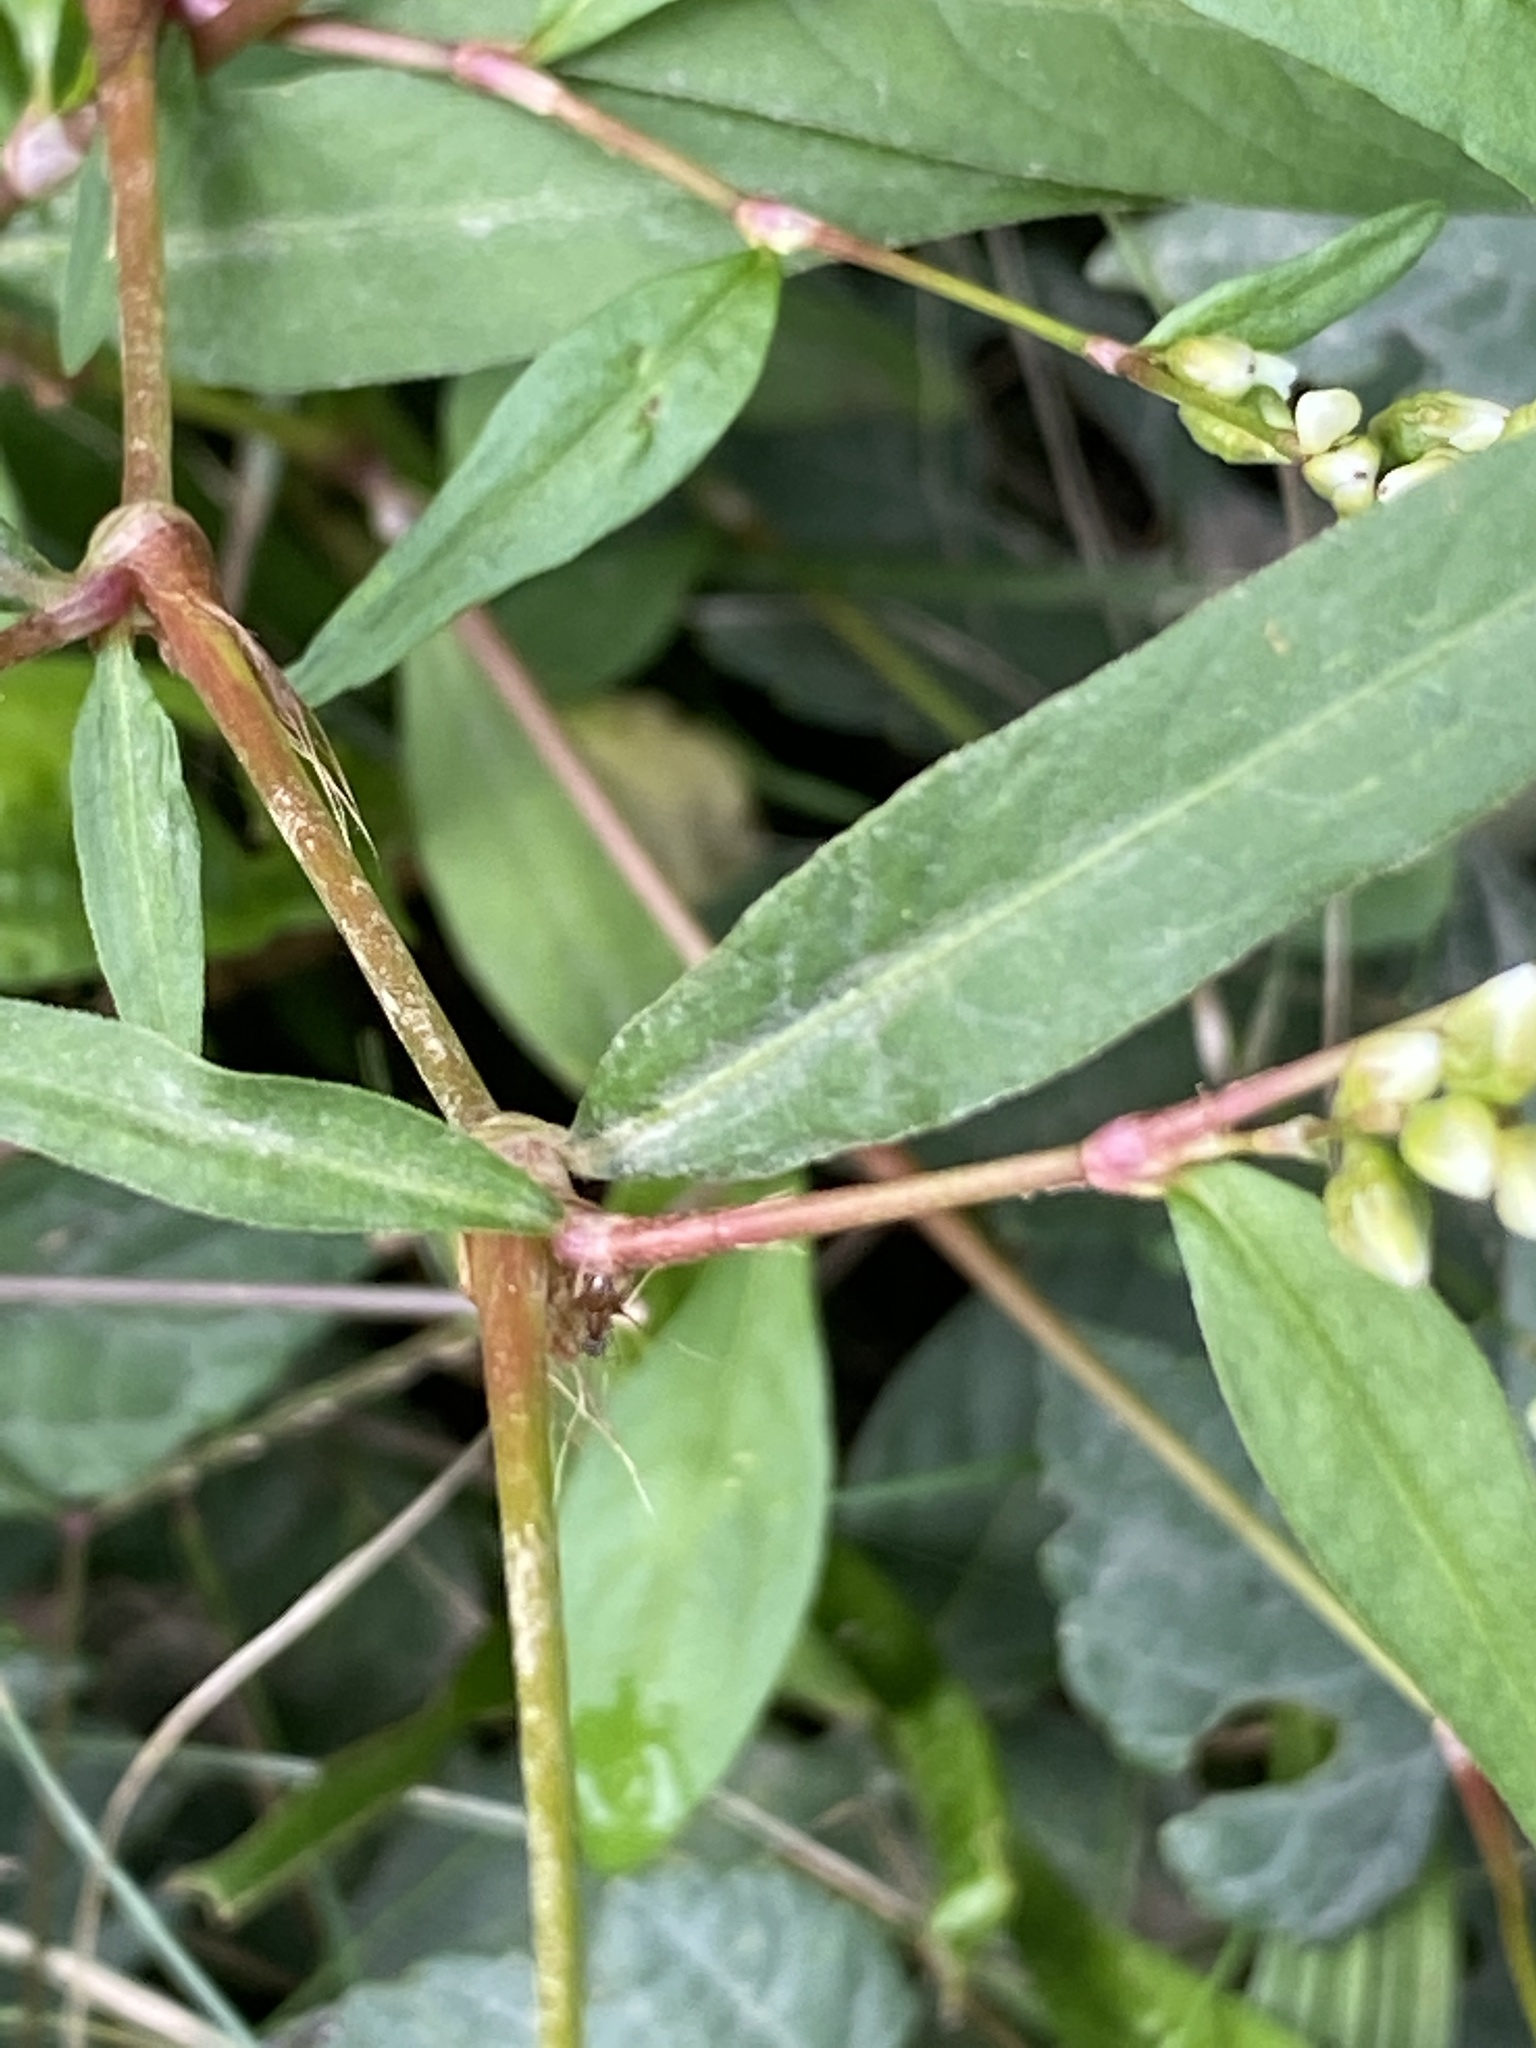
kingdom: Plantae
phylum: Tracheophyta
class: Magnoliopsida
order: Caryophyllales
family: Polygonaceae
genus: Persicaria
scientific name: Persicaria punctata
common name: Dotted smartweed
